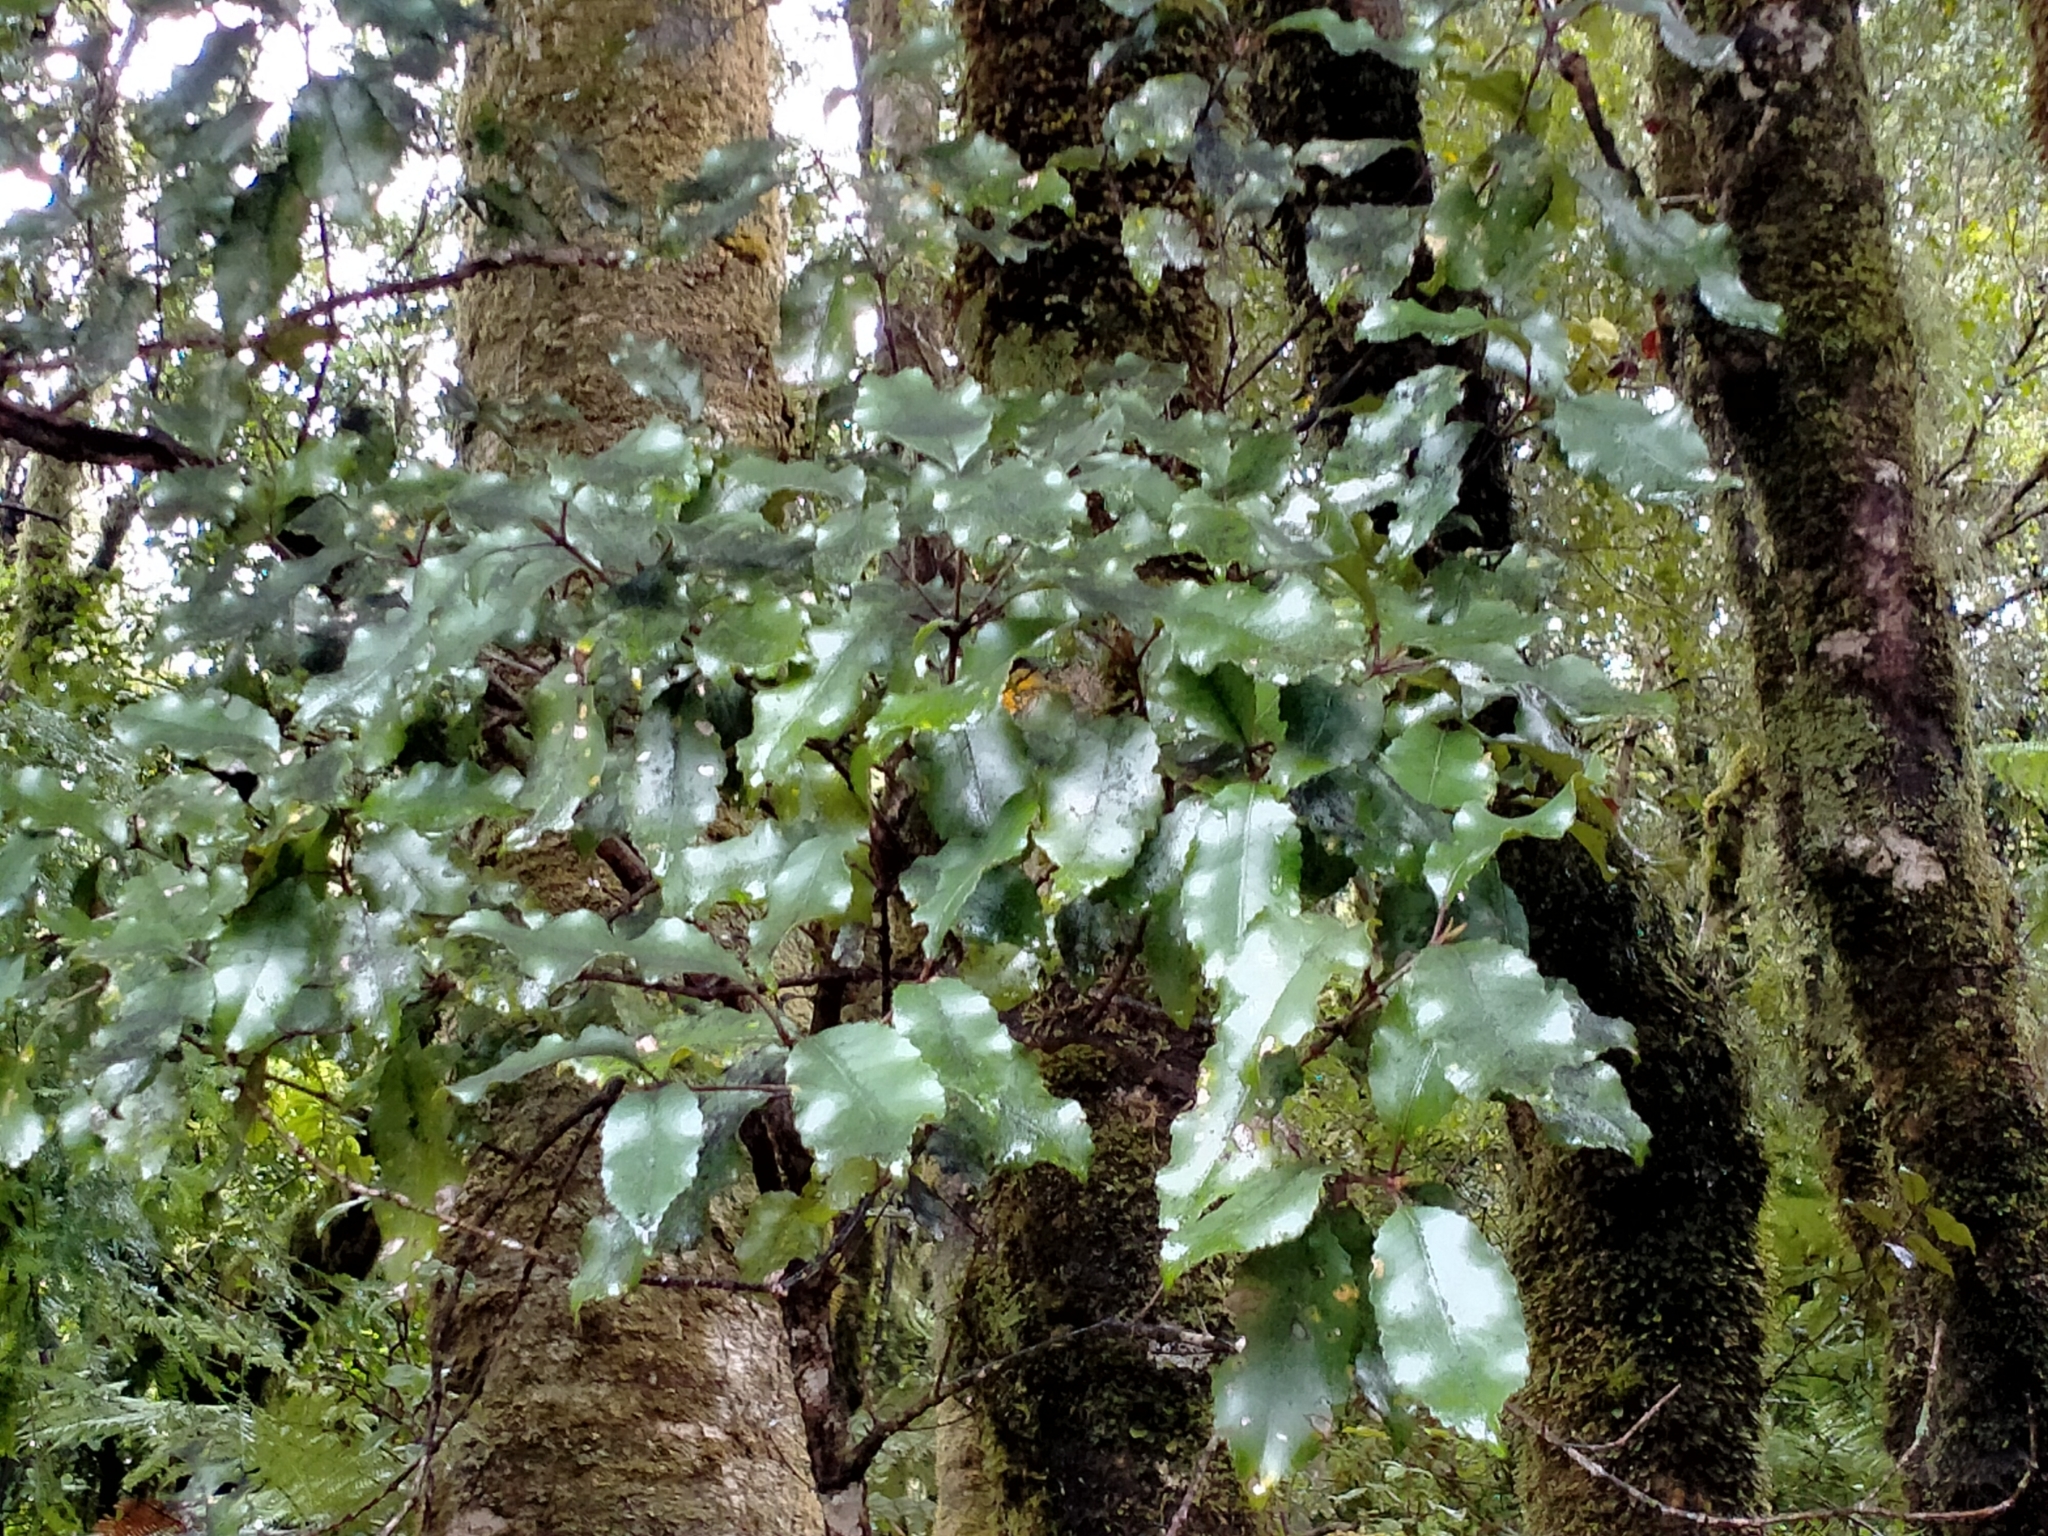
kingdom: Plantae
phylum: Tracheophyta
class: Magnoliopsida
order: Oxalidales
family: Cunoniaceae
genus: Pterophylla
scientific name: Pterophylla racemosa
